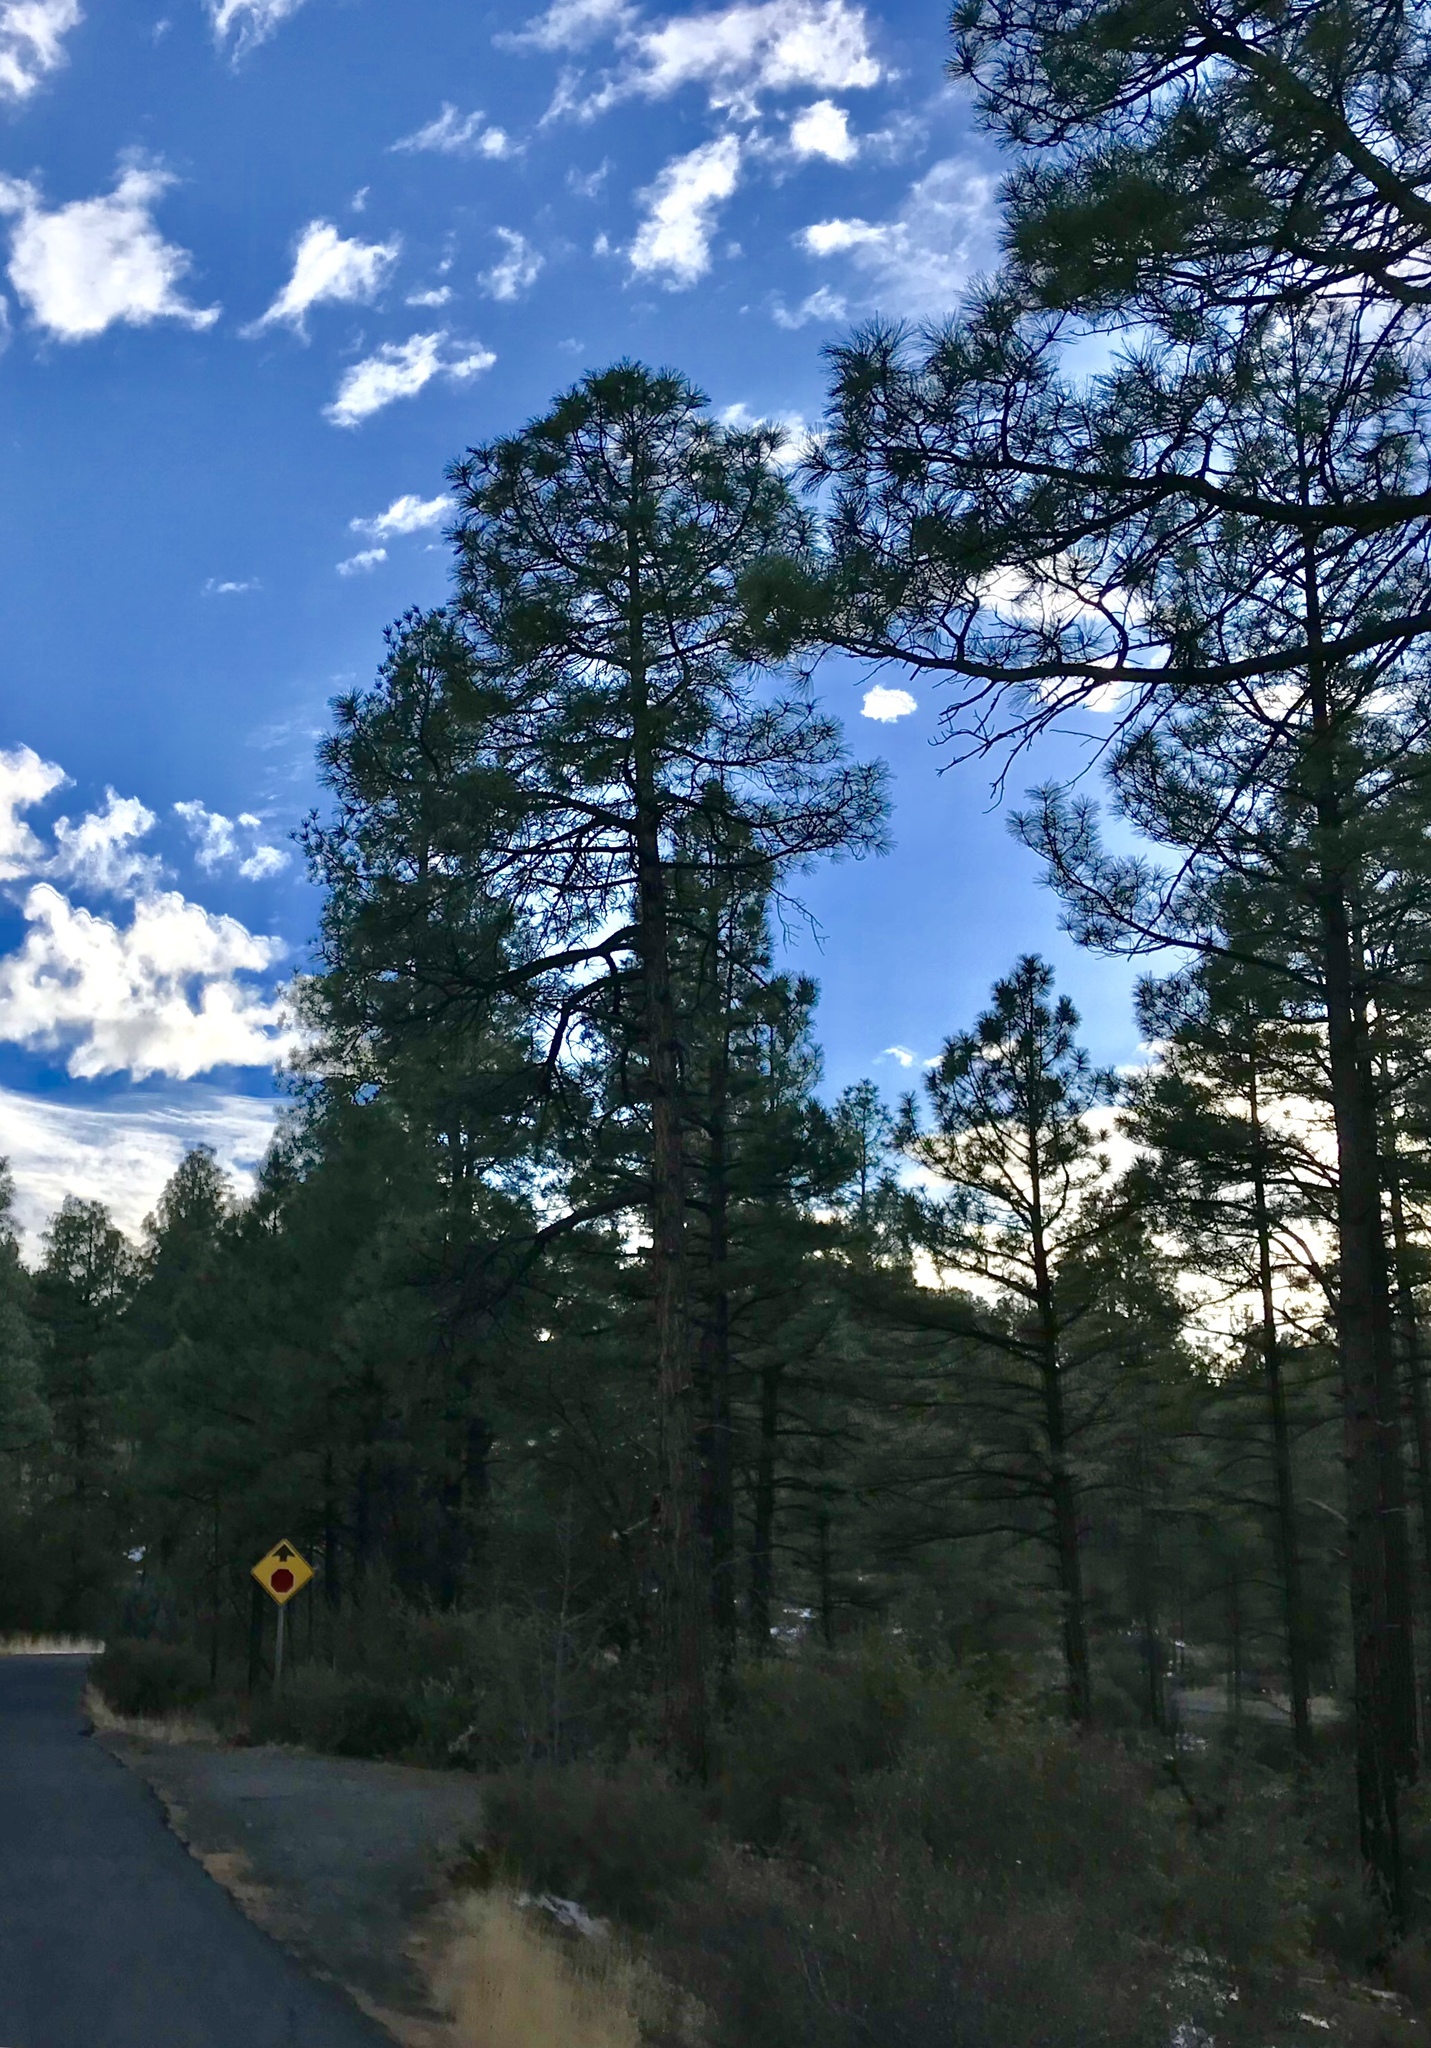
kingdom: Plantae
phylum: Tracheophyta
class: Pinopsida
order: Pinales
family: Pinaceae
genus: Pinus
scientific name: Pinus ponderosa
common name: Western yellow-pine
